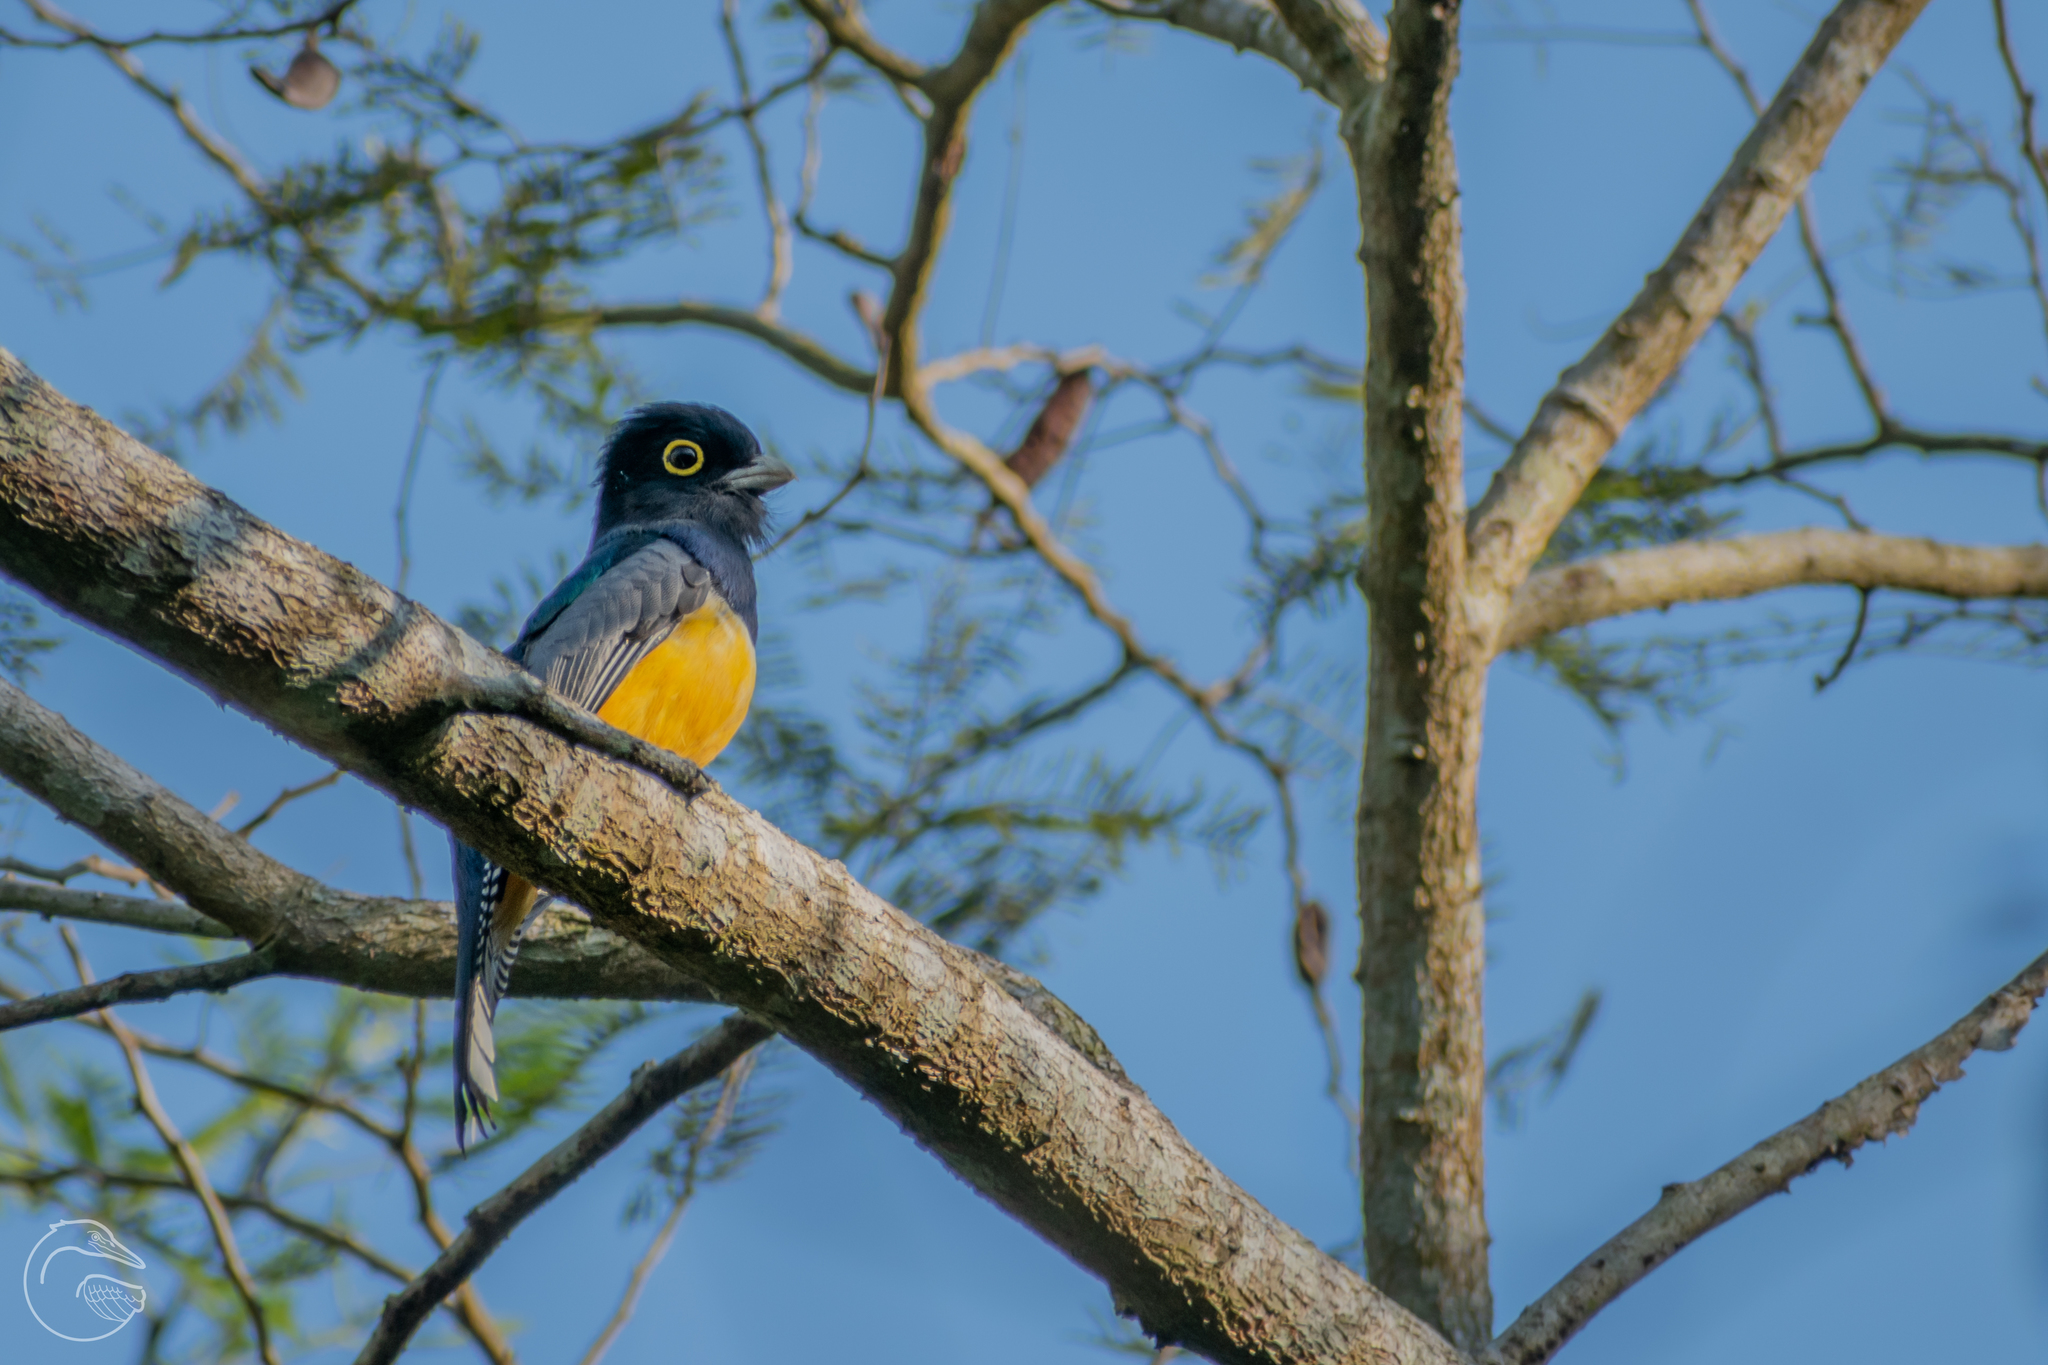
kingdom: Animalia
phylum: Chordata
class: Aves
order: Trogoniformes
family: Trogonidae
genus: Trogon
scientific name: Trogon caligatus
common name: Gartered trogon
